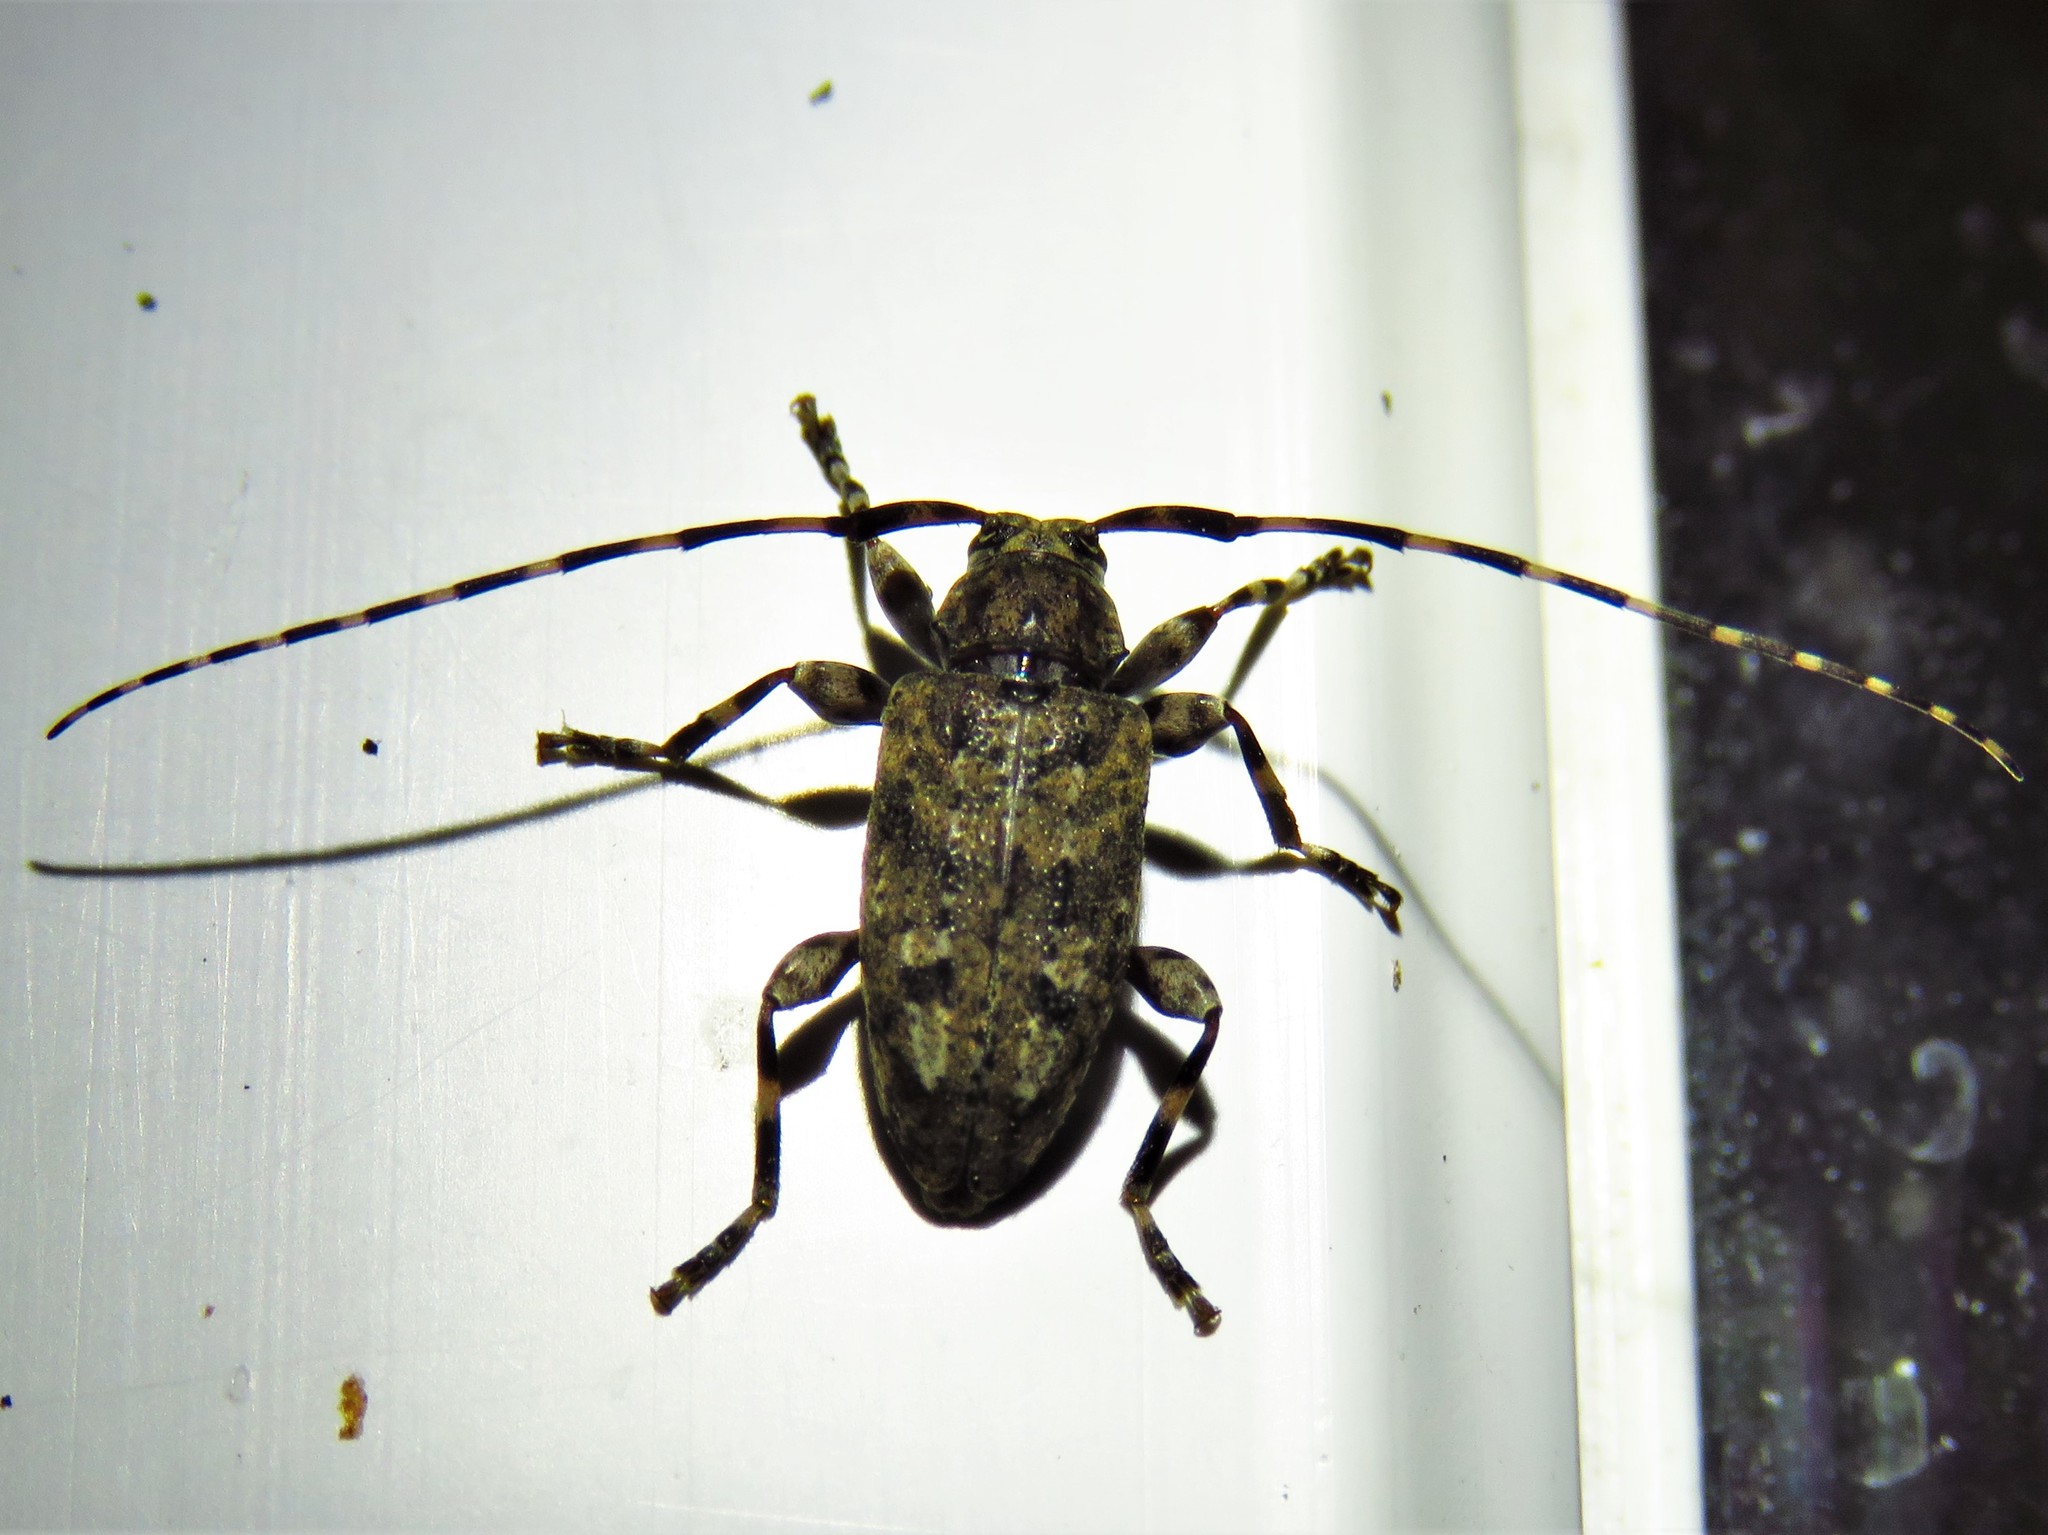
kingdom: Animalia
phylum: Arthropoda
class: Insecta
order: Coleoptera
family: Cerambycidae
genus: Astyleiopus
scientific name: Astyleiopus variegatus
